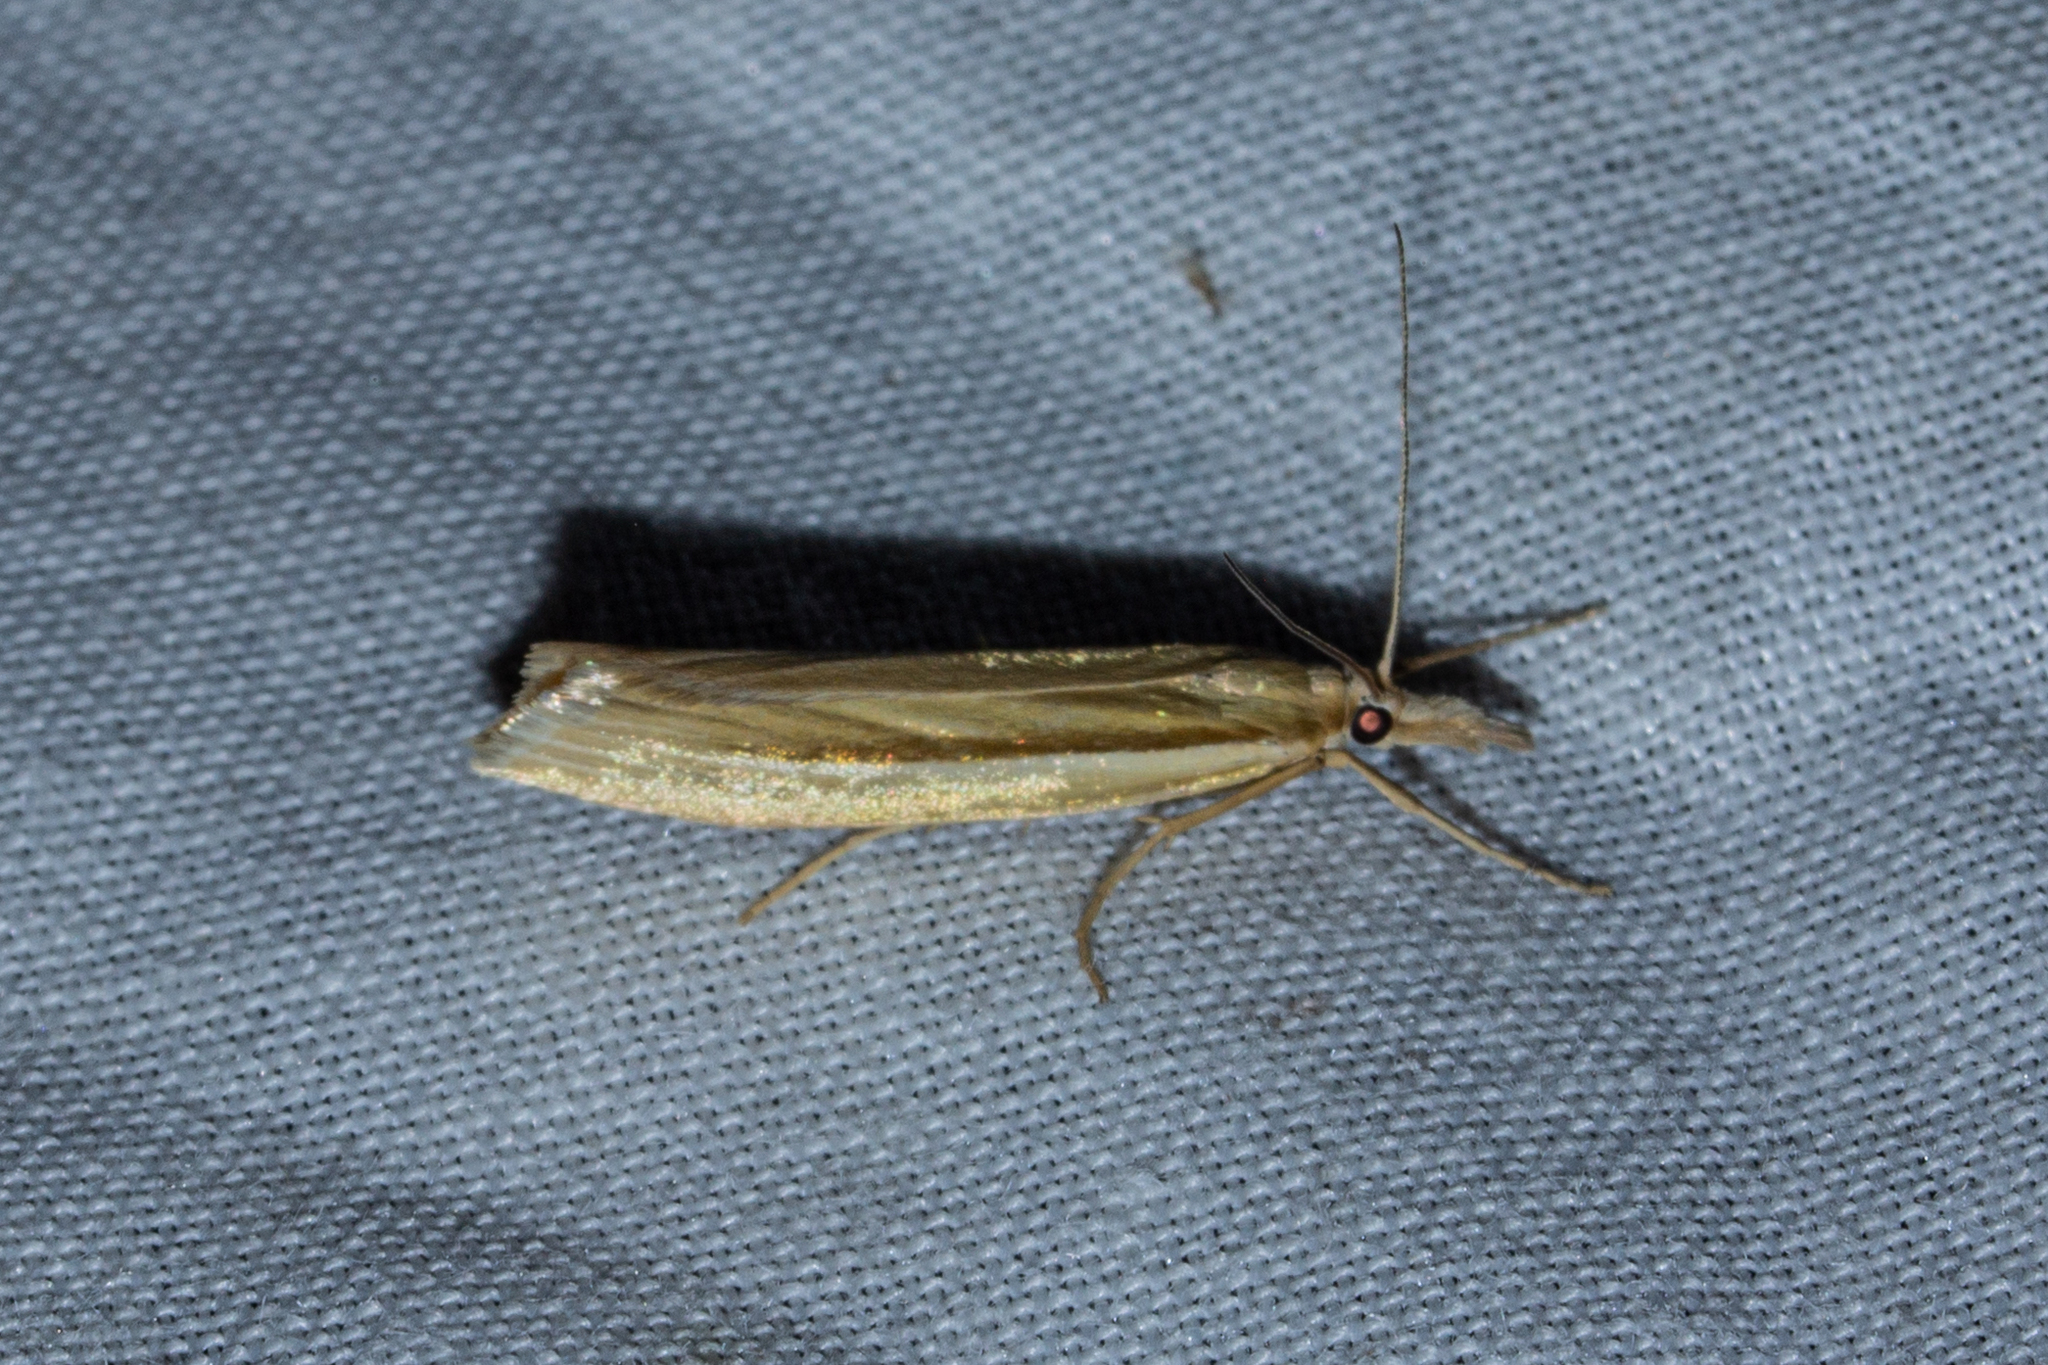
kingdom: Animalia
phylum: Arthropoda
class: Insecta
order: Lepidoptera
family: Crambidae
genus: Orocrambus
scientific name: Orocrambus ramosellus
